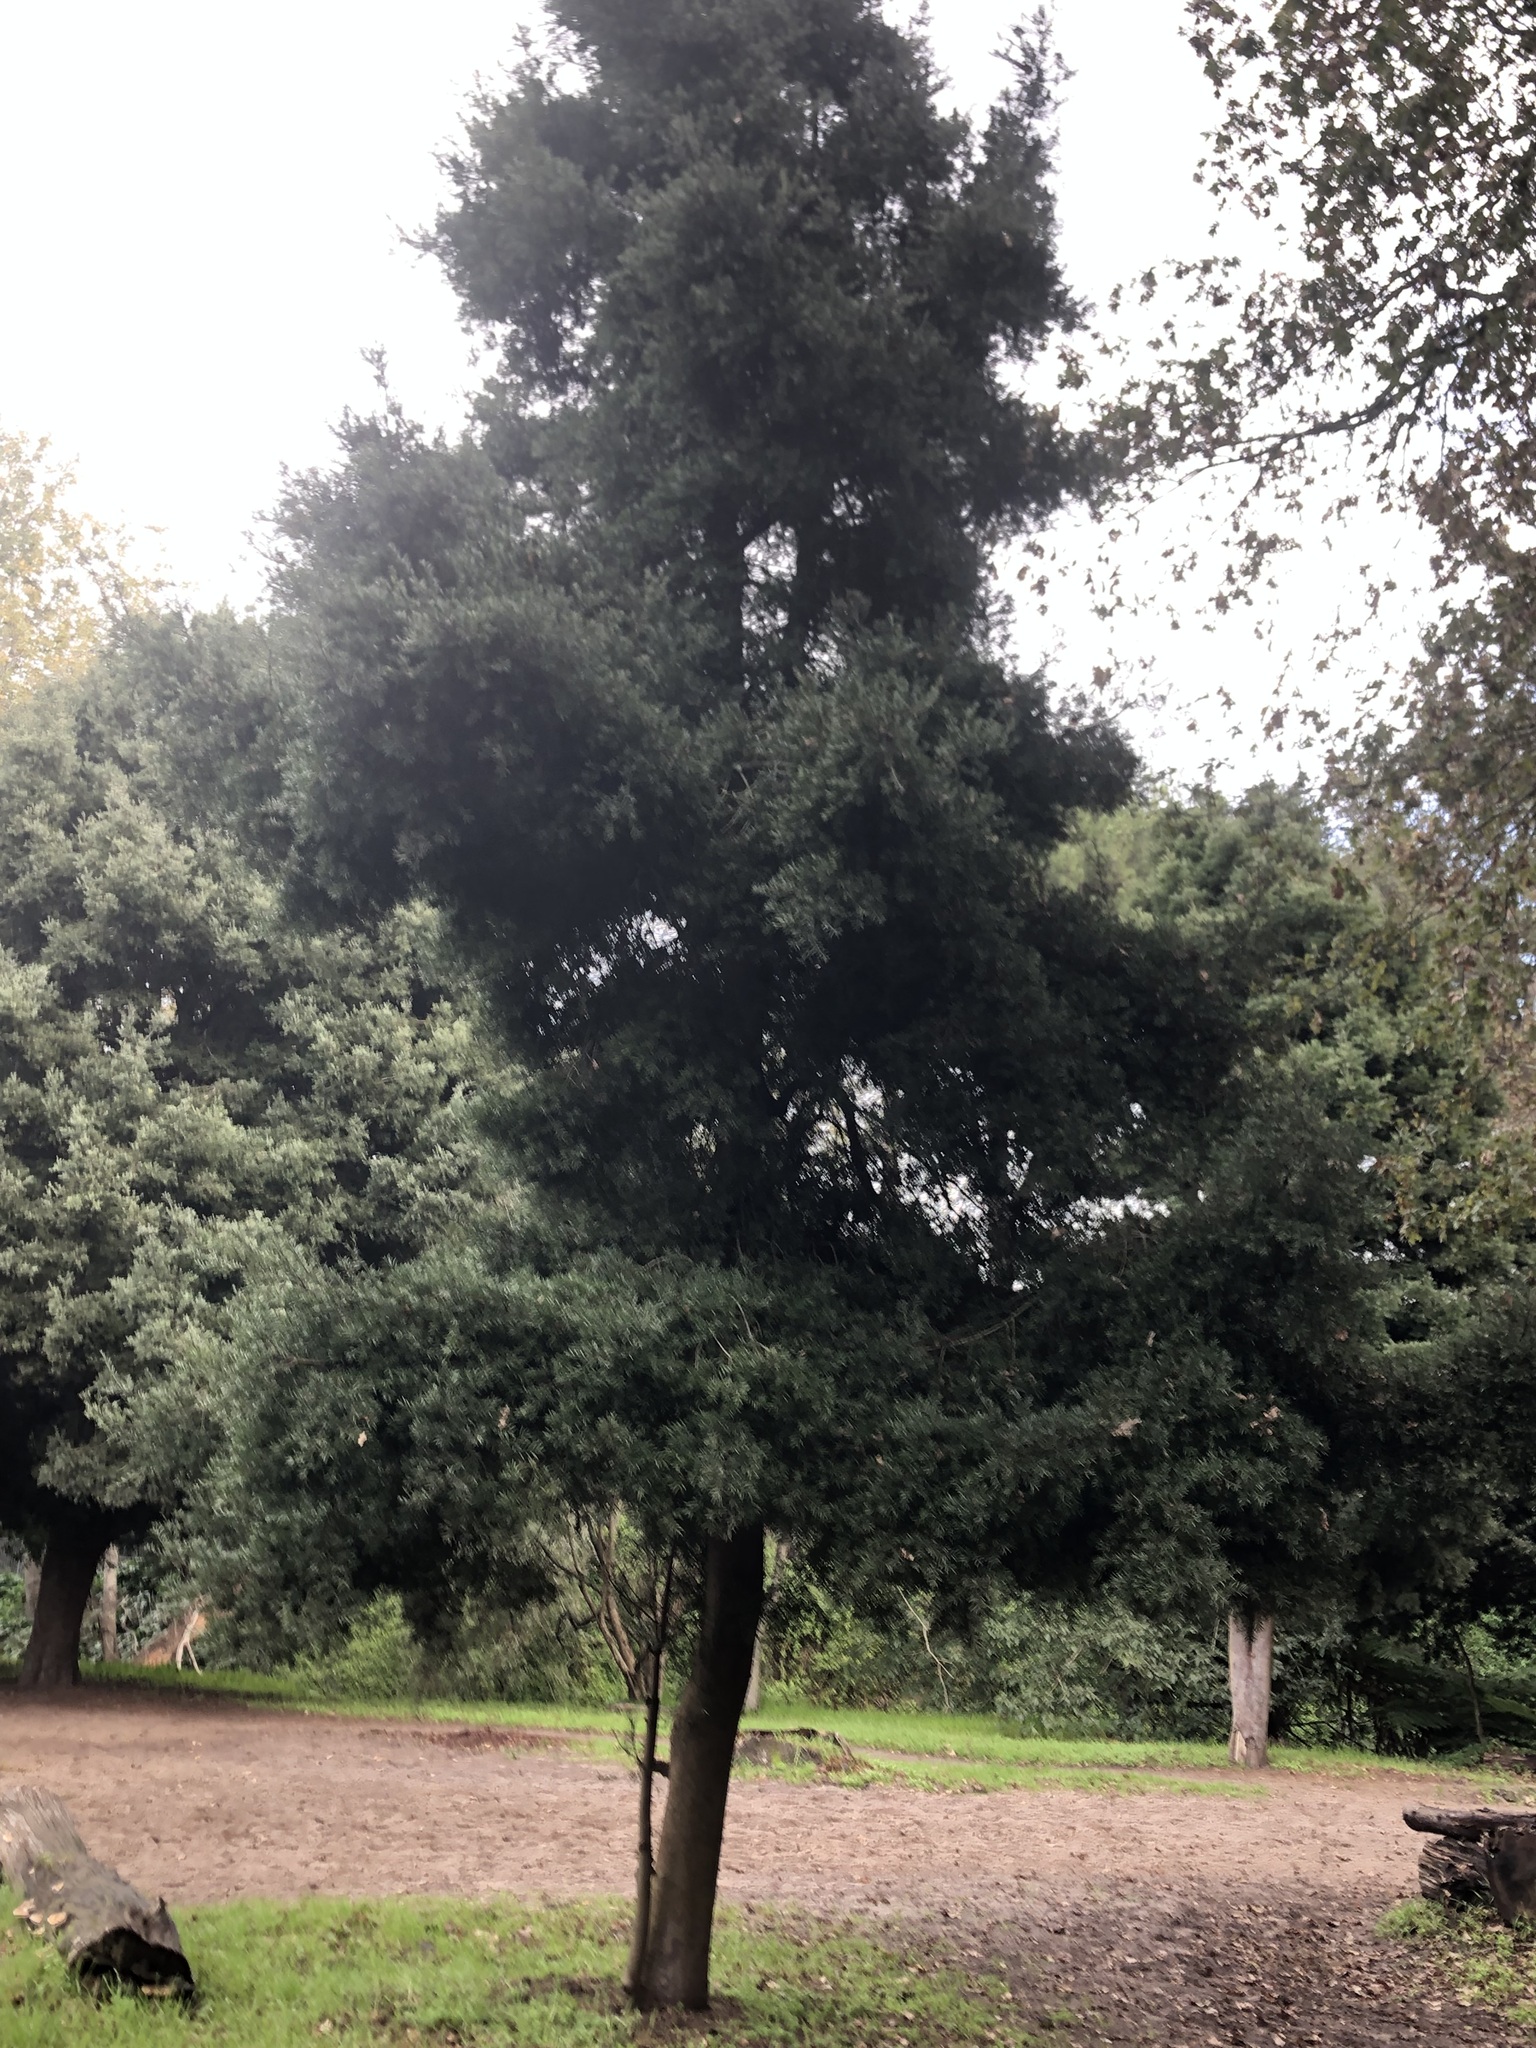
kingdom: Plantae
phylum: Tracheophyta
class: Pinopsida
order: Pinales
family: Podocarpaceae
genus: Podocarpus
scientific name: Podocarpus latifolius
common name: True yellowwood
